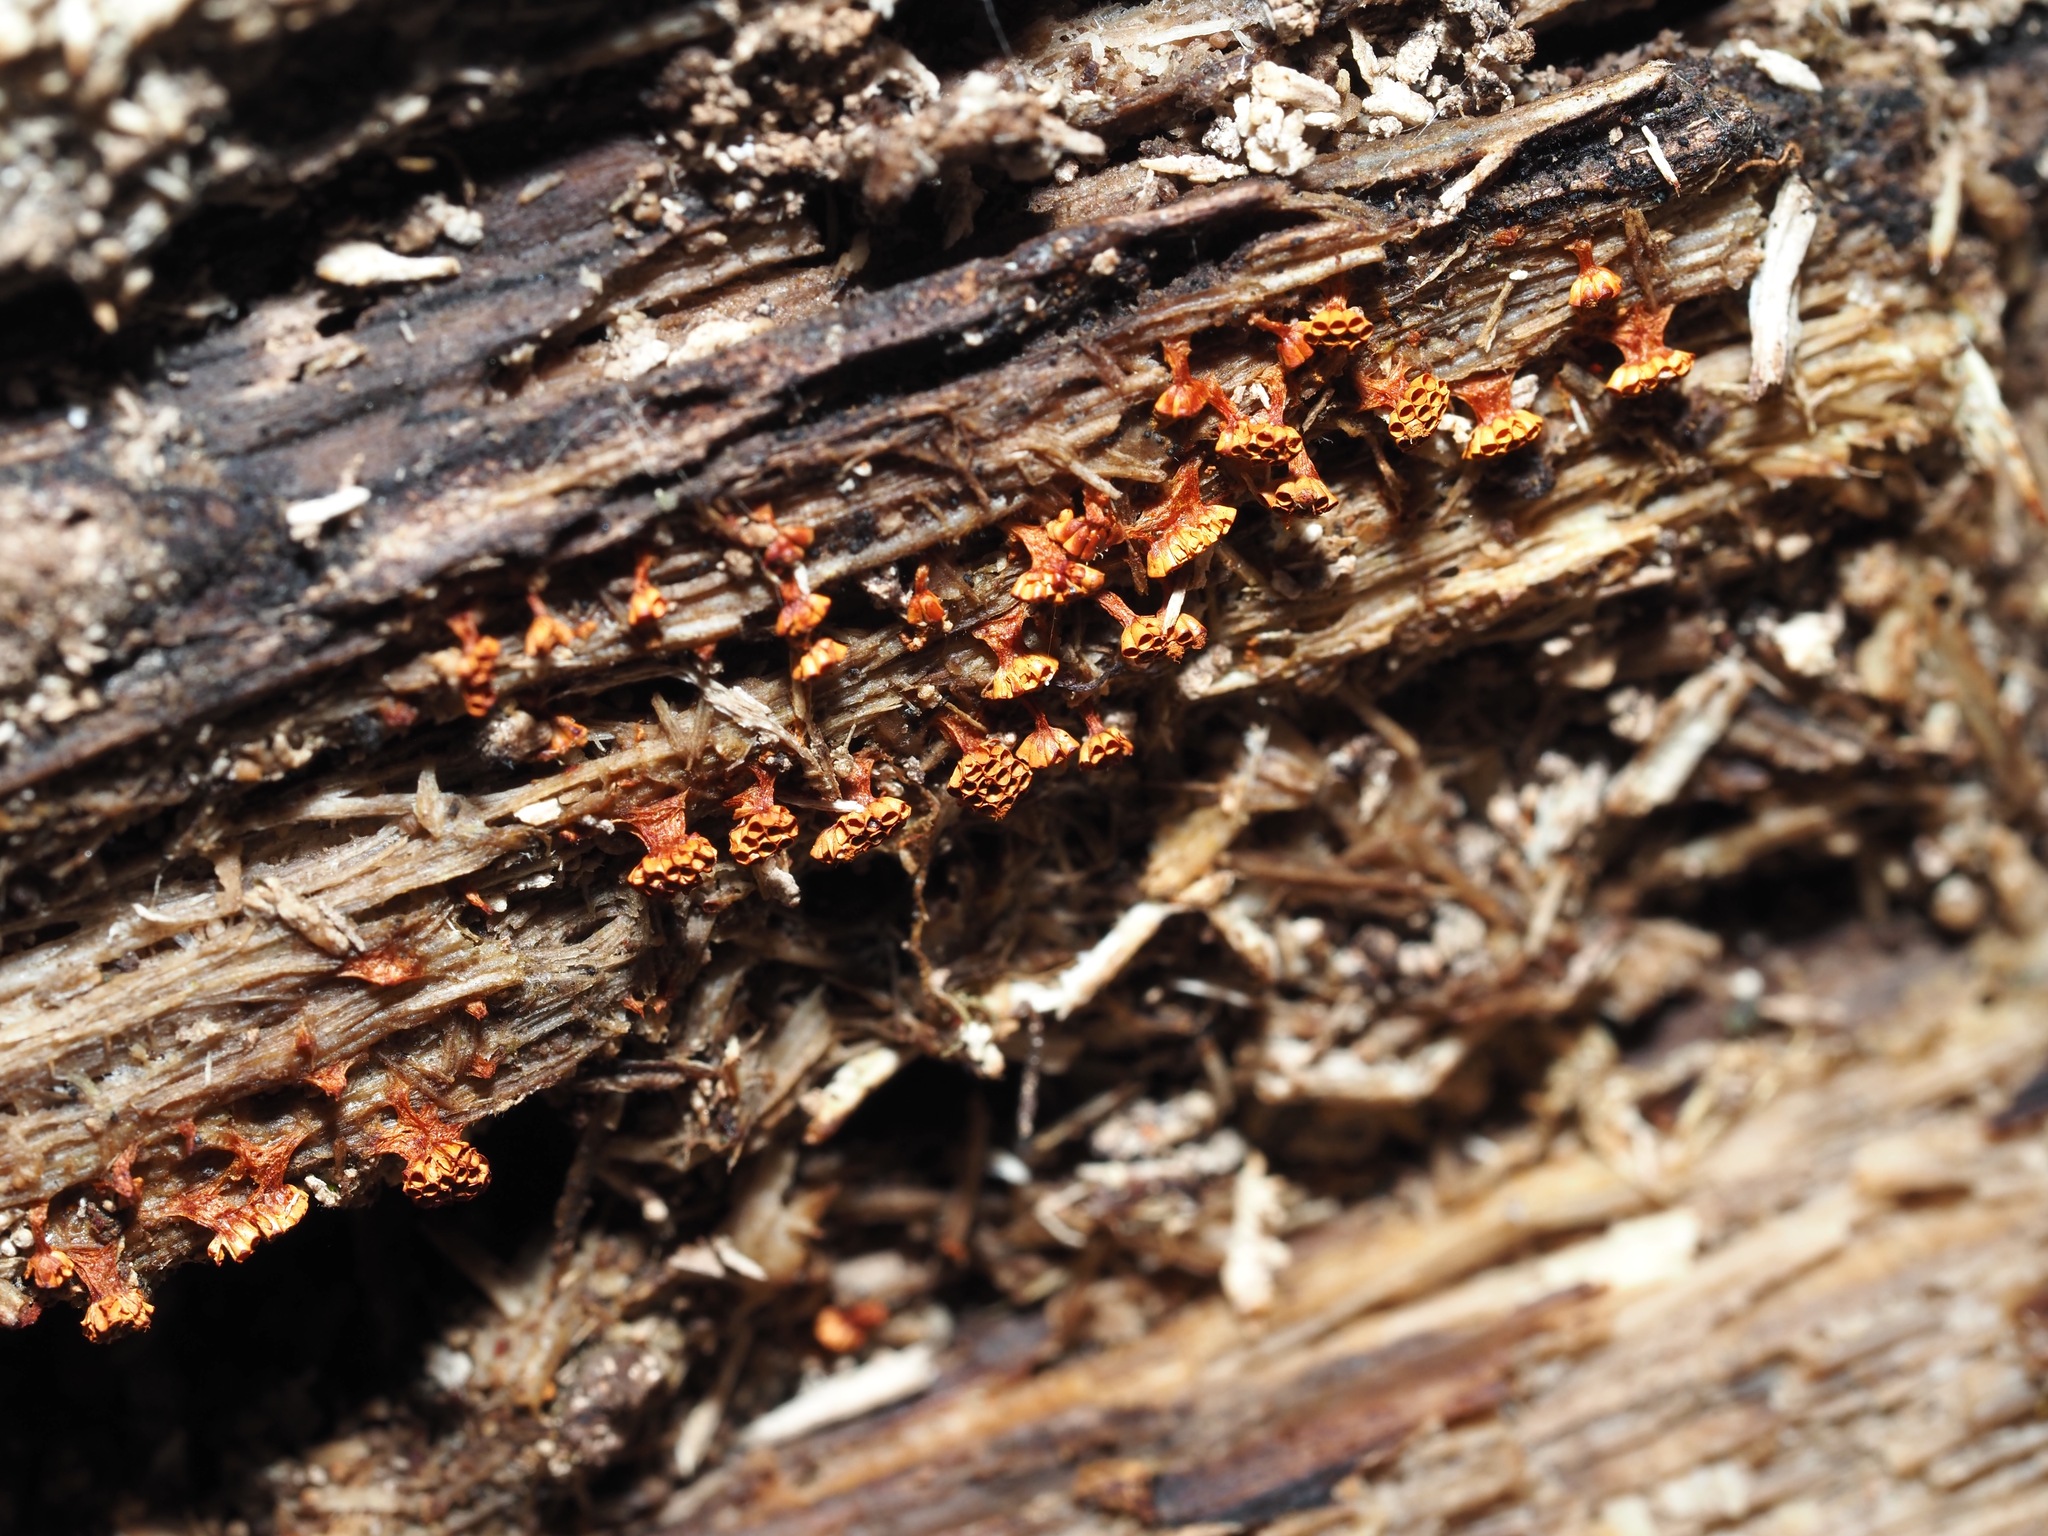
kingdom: Protozoa
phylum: Mycetozoa
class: Myxomycetes
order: Trichiales
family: Trichiaceae
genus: Metatrichia
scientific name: Metatrichia vesparia
